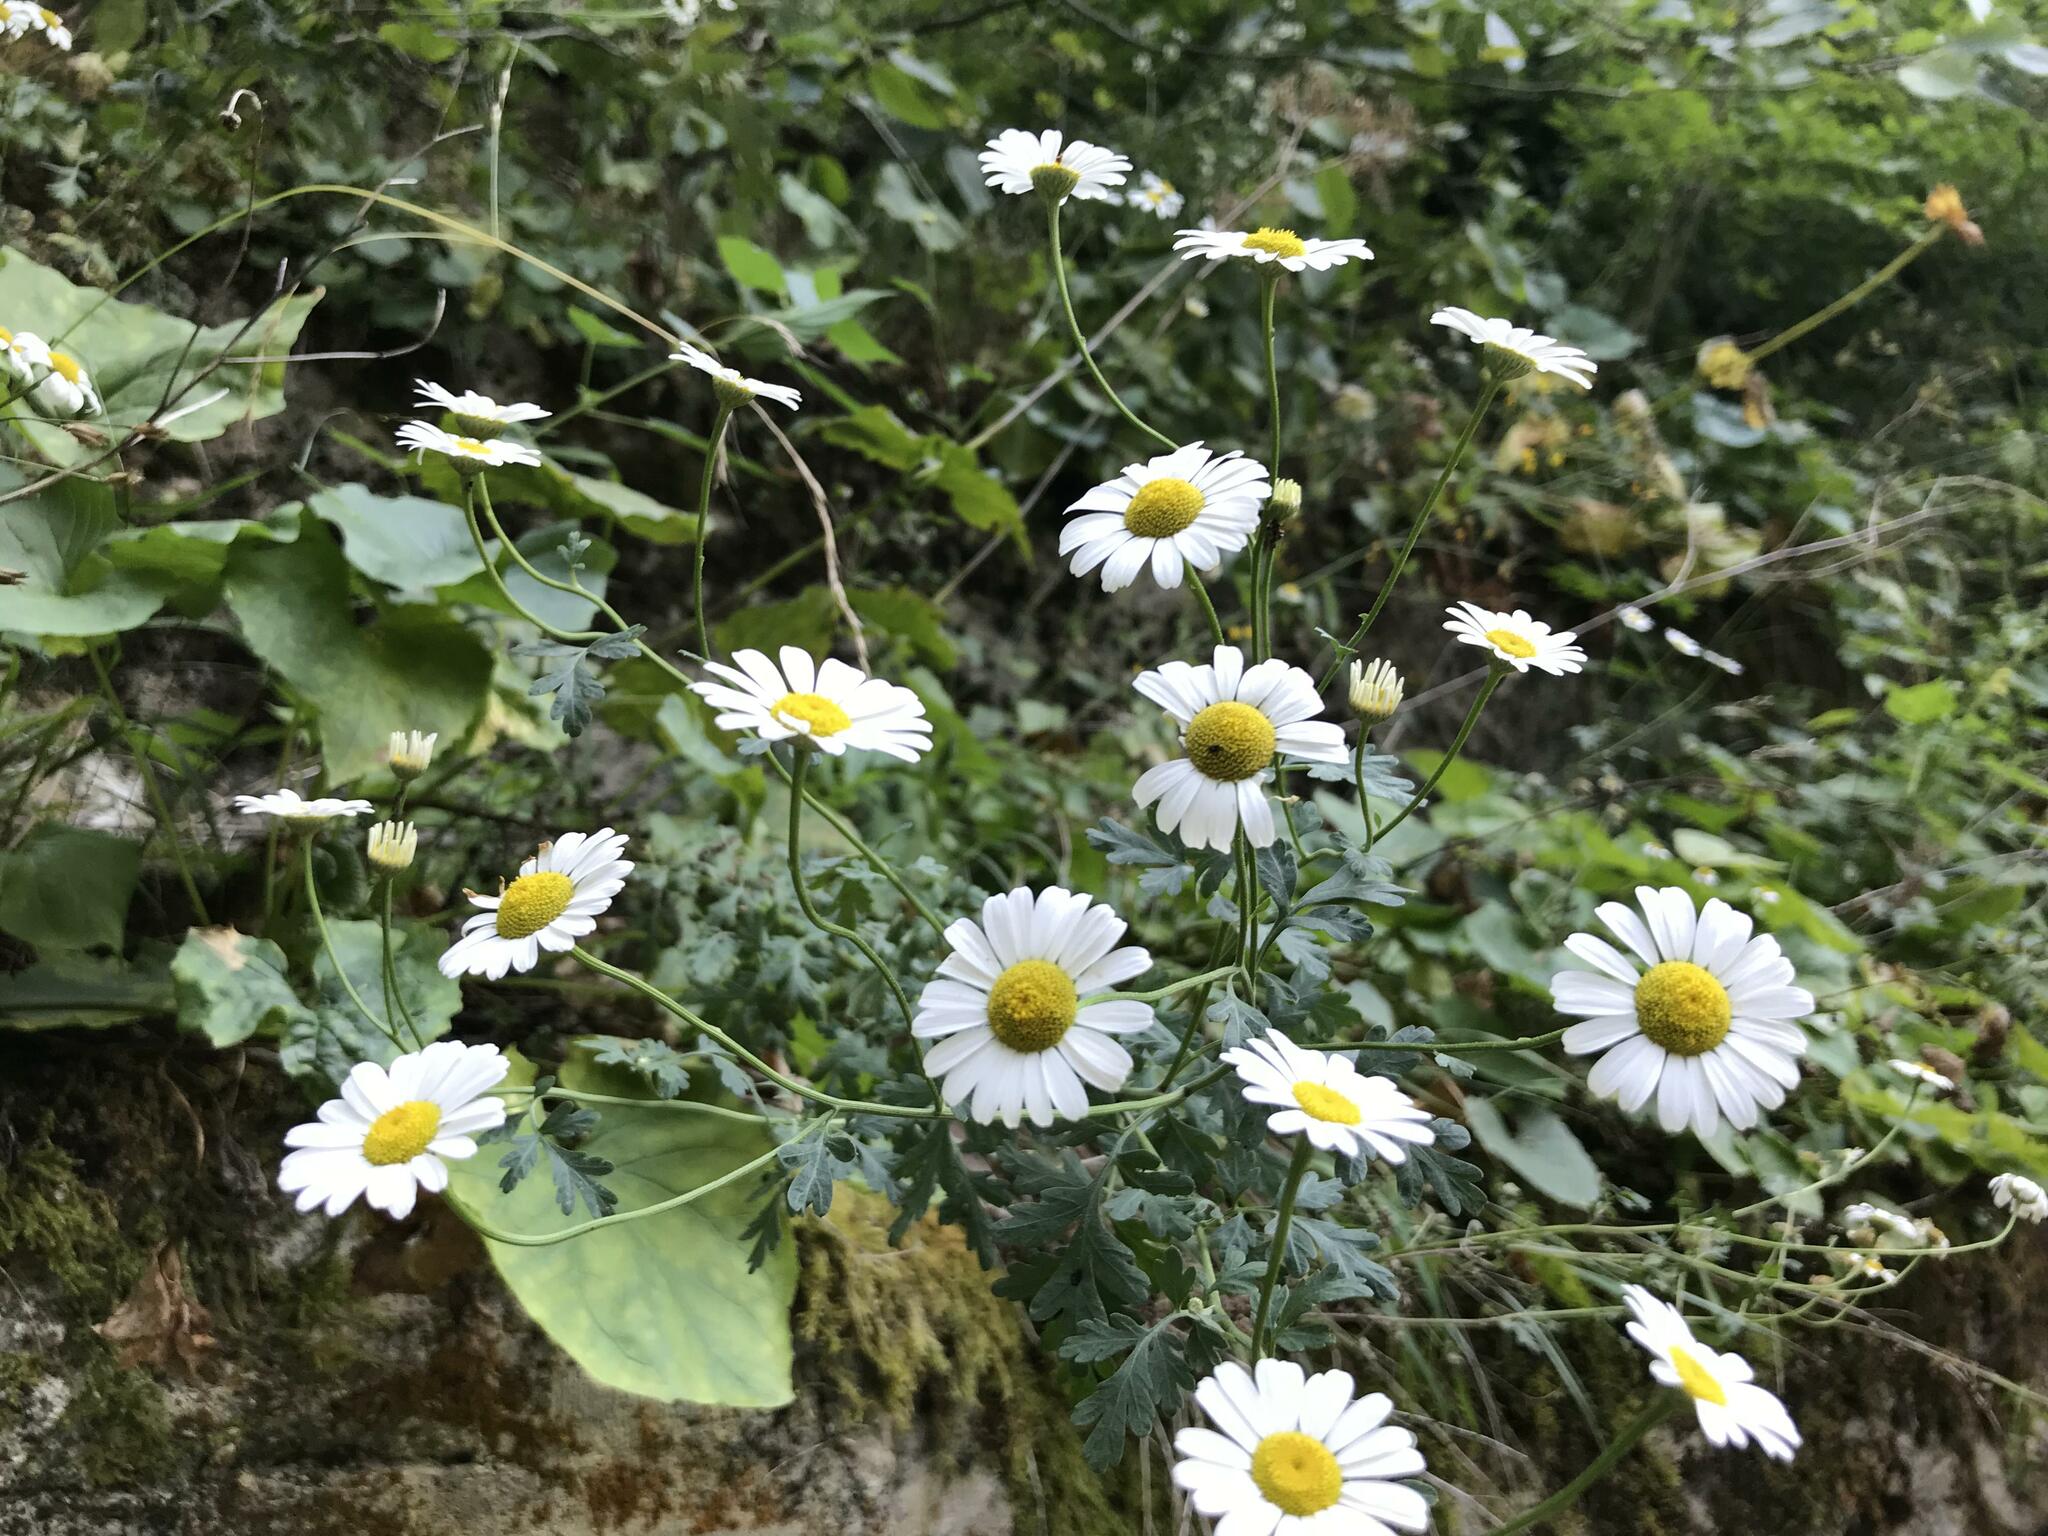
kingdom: Plantae
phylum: Tracheophyta
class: Magnoliopsida
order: Asterales
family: Asteraceae
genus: Tanacetum
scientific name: Tanacetum partheniifolium
